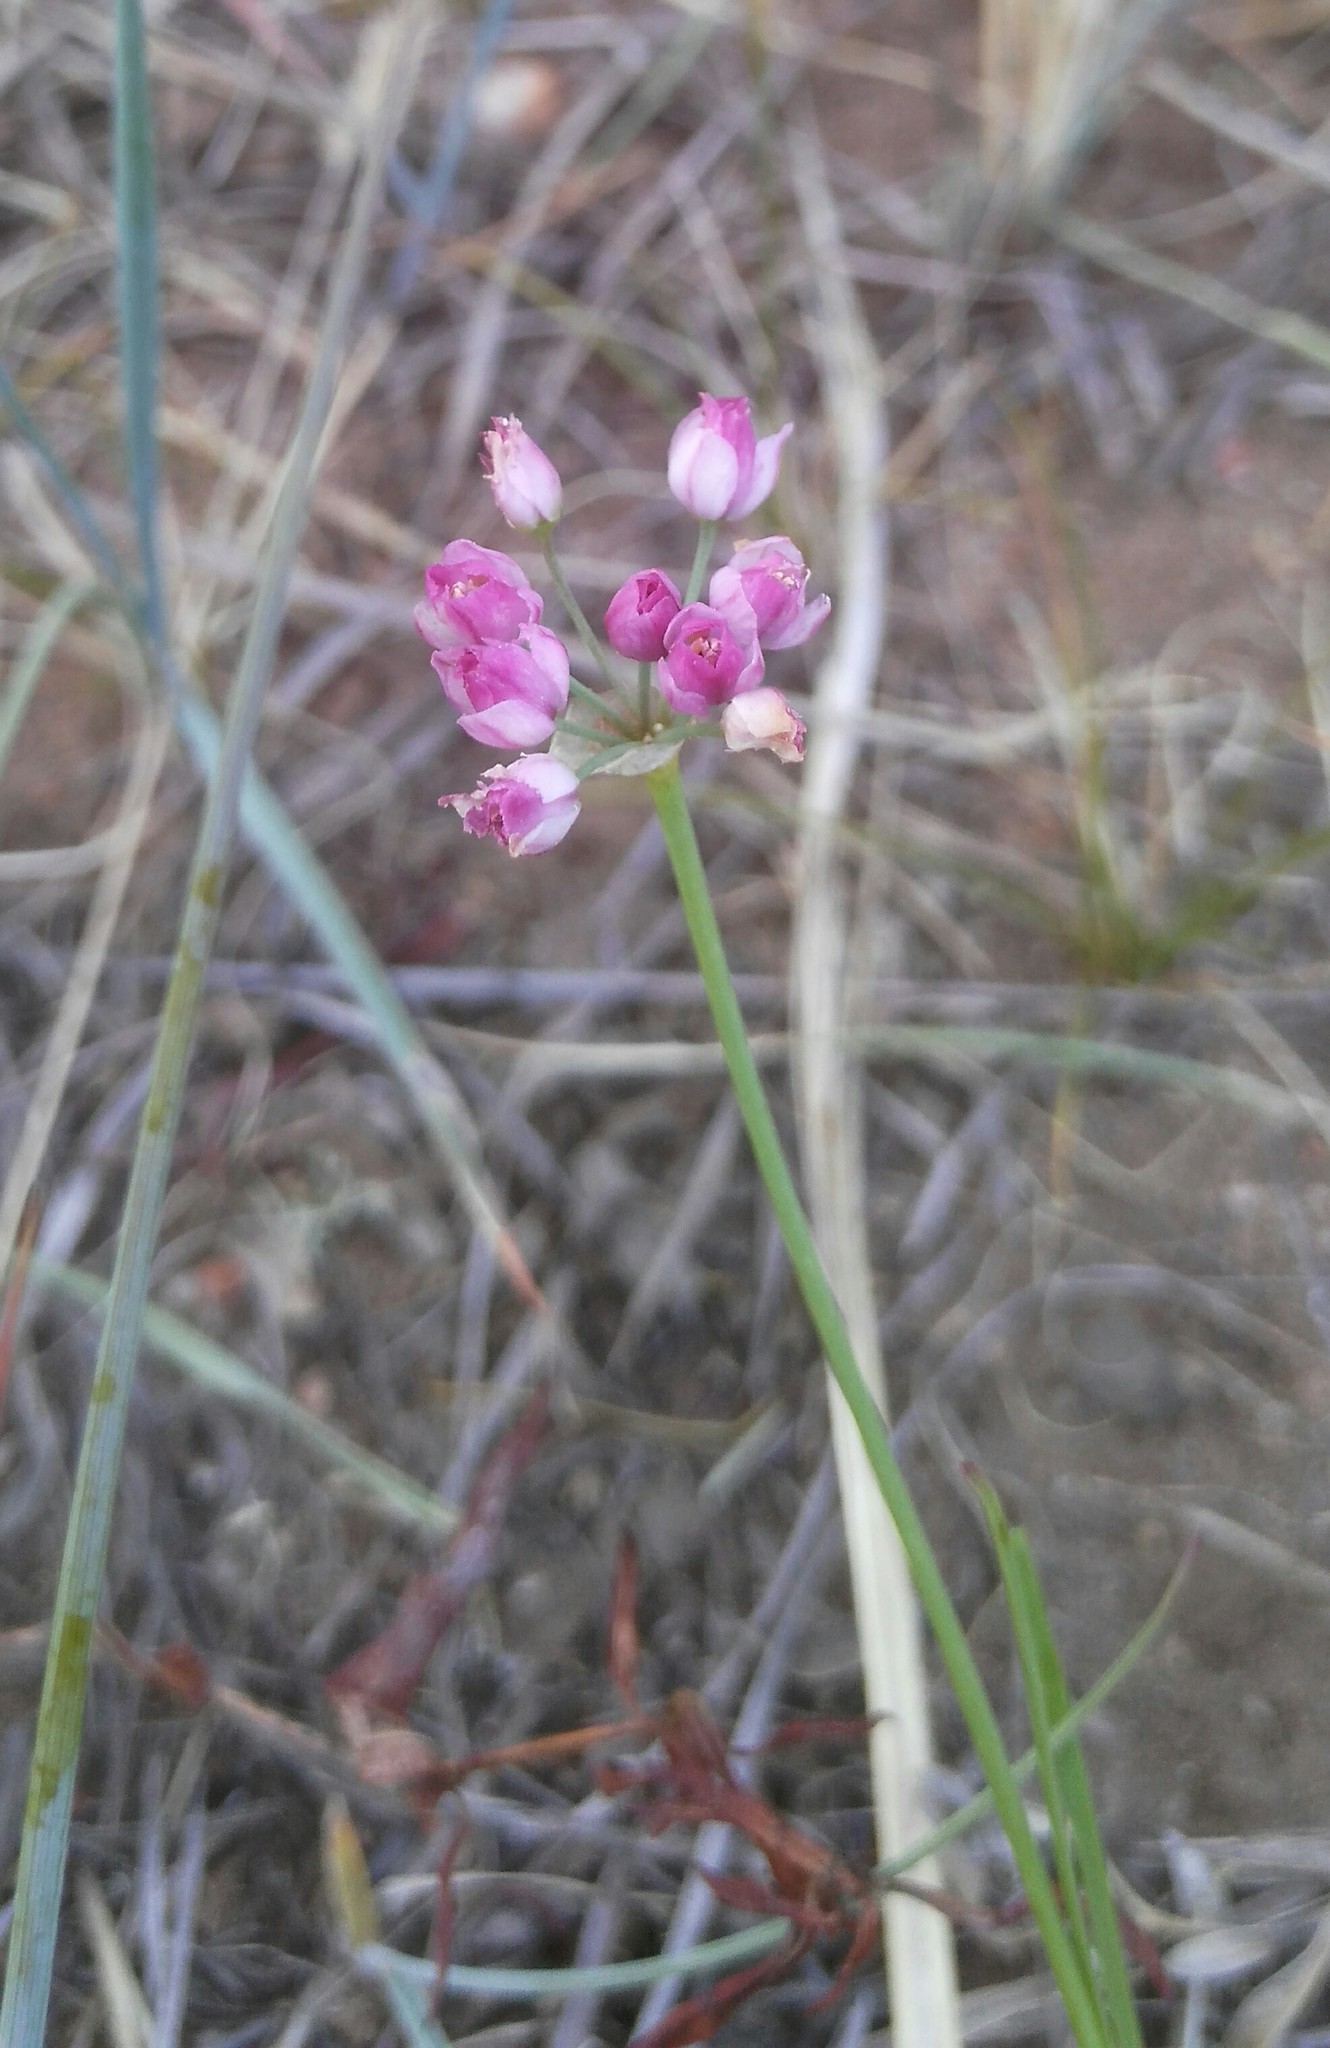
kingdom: Plantae
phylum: Tracheophyta
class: Liliopsida
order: Asparagales
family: Amaryllidaceae
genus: Allium
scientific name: Allium tenuissimum
